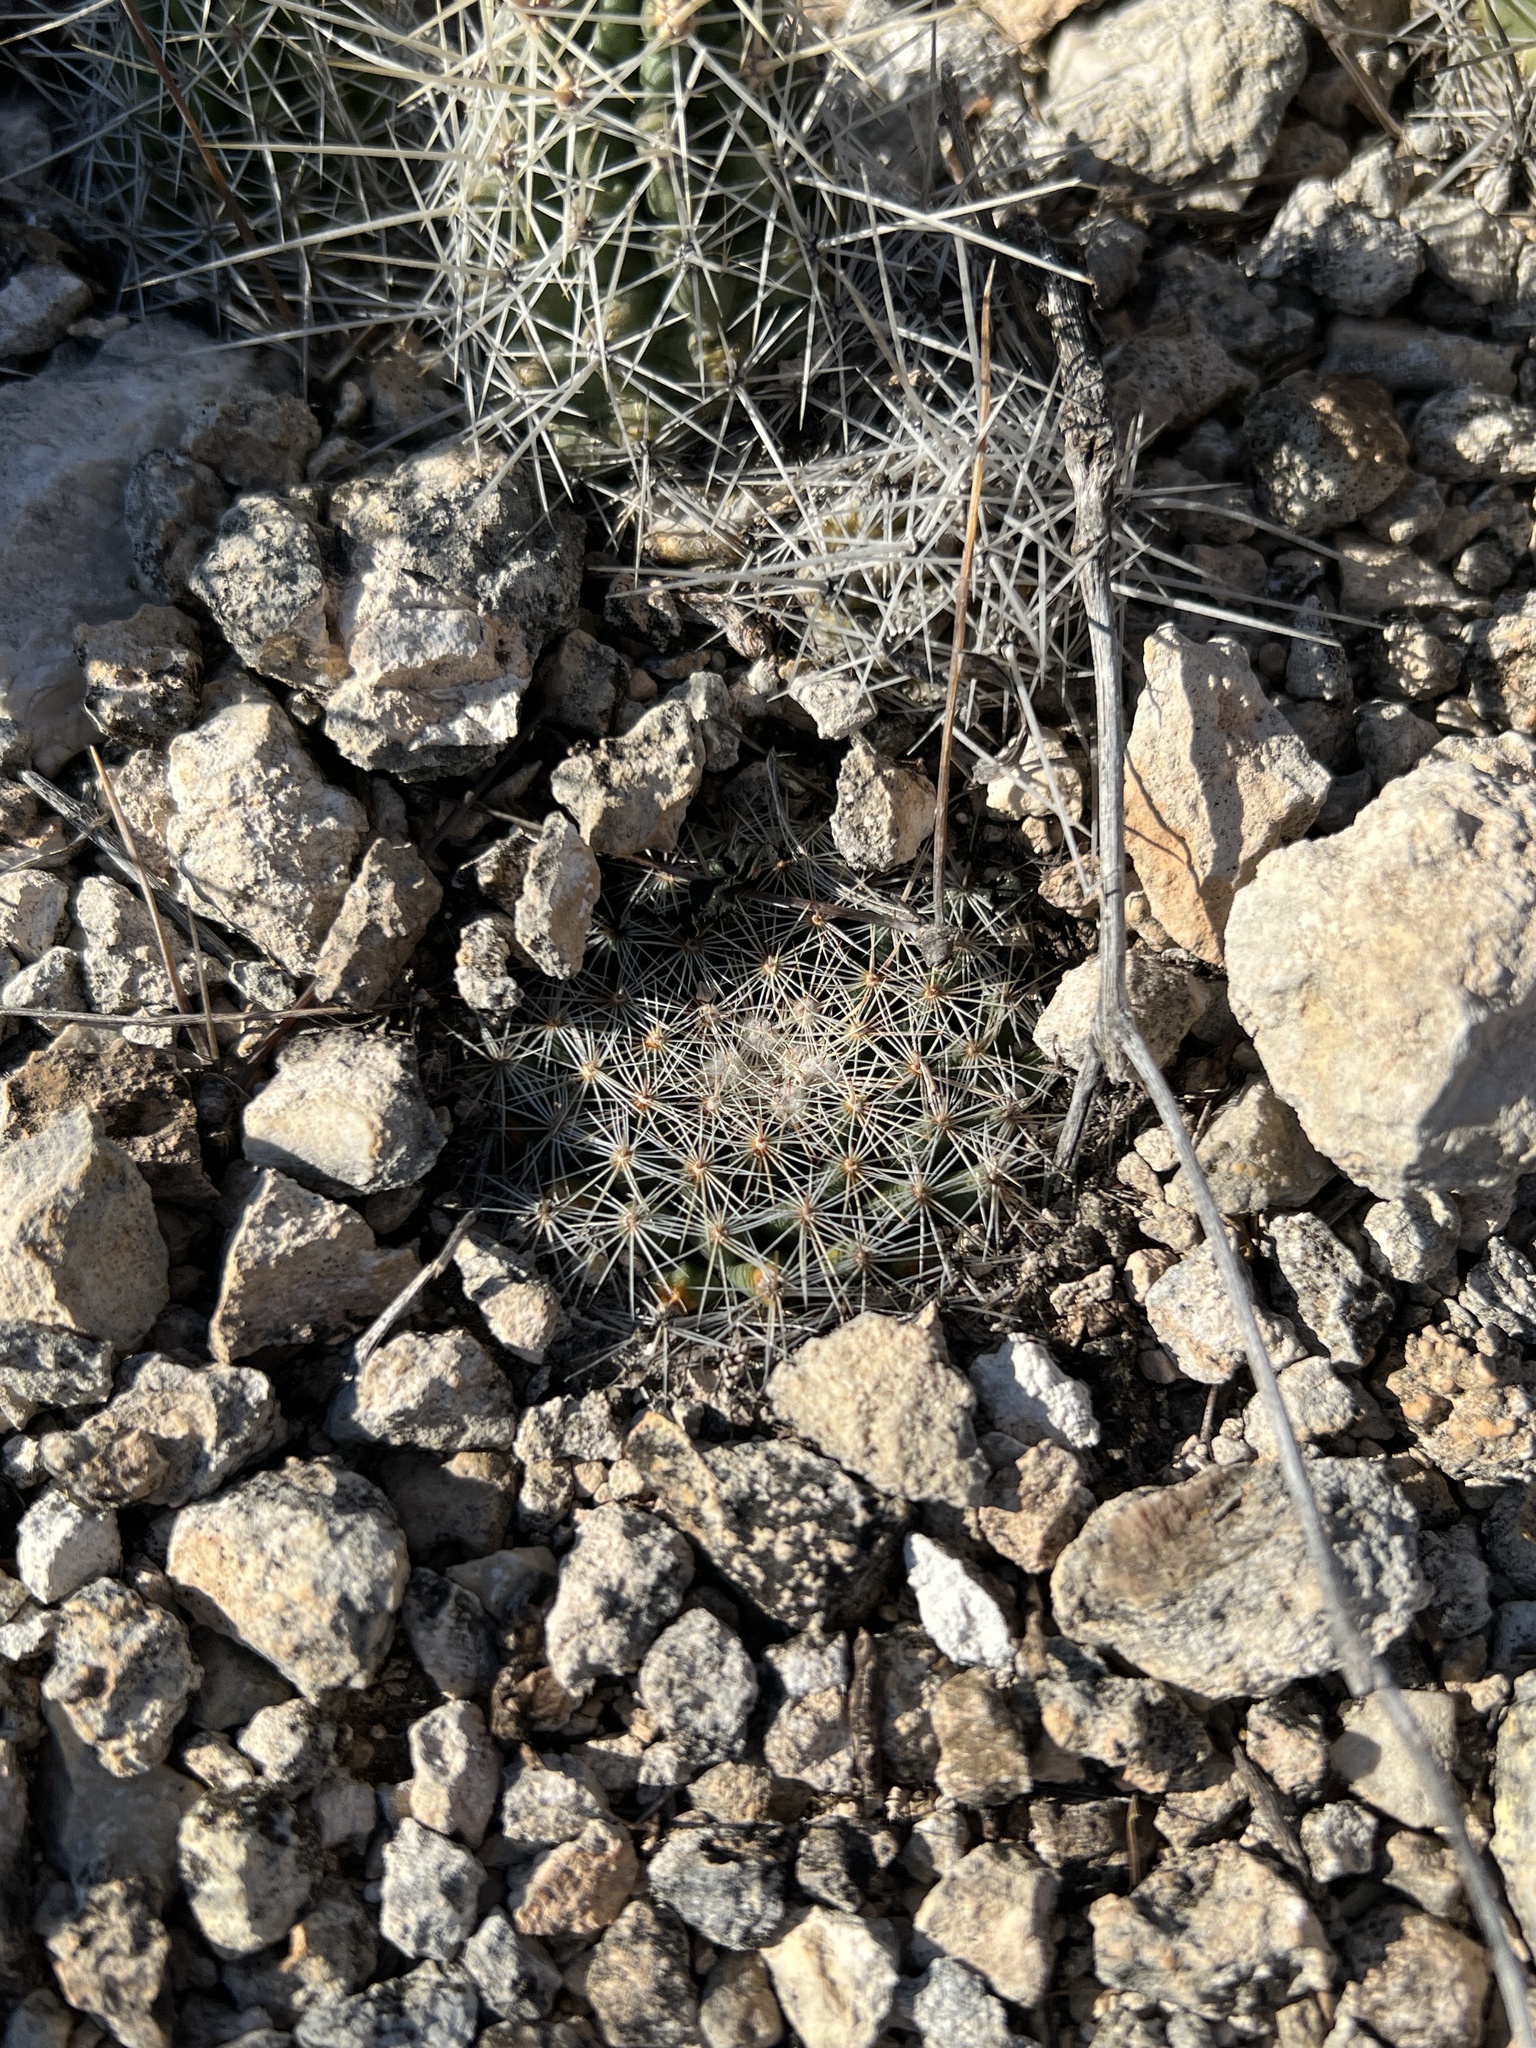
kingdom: Plantae
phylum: Tracheophyta
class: Magnoliopsida
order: Caryophyllales
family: Cactaceae
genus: Mammillaria
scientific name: Mammillaria heyderi
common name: Little nipple cactus
